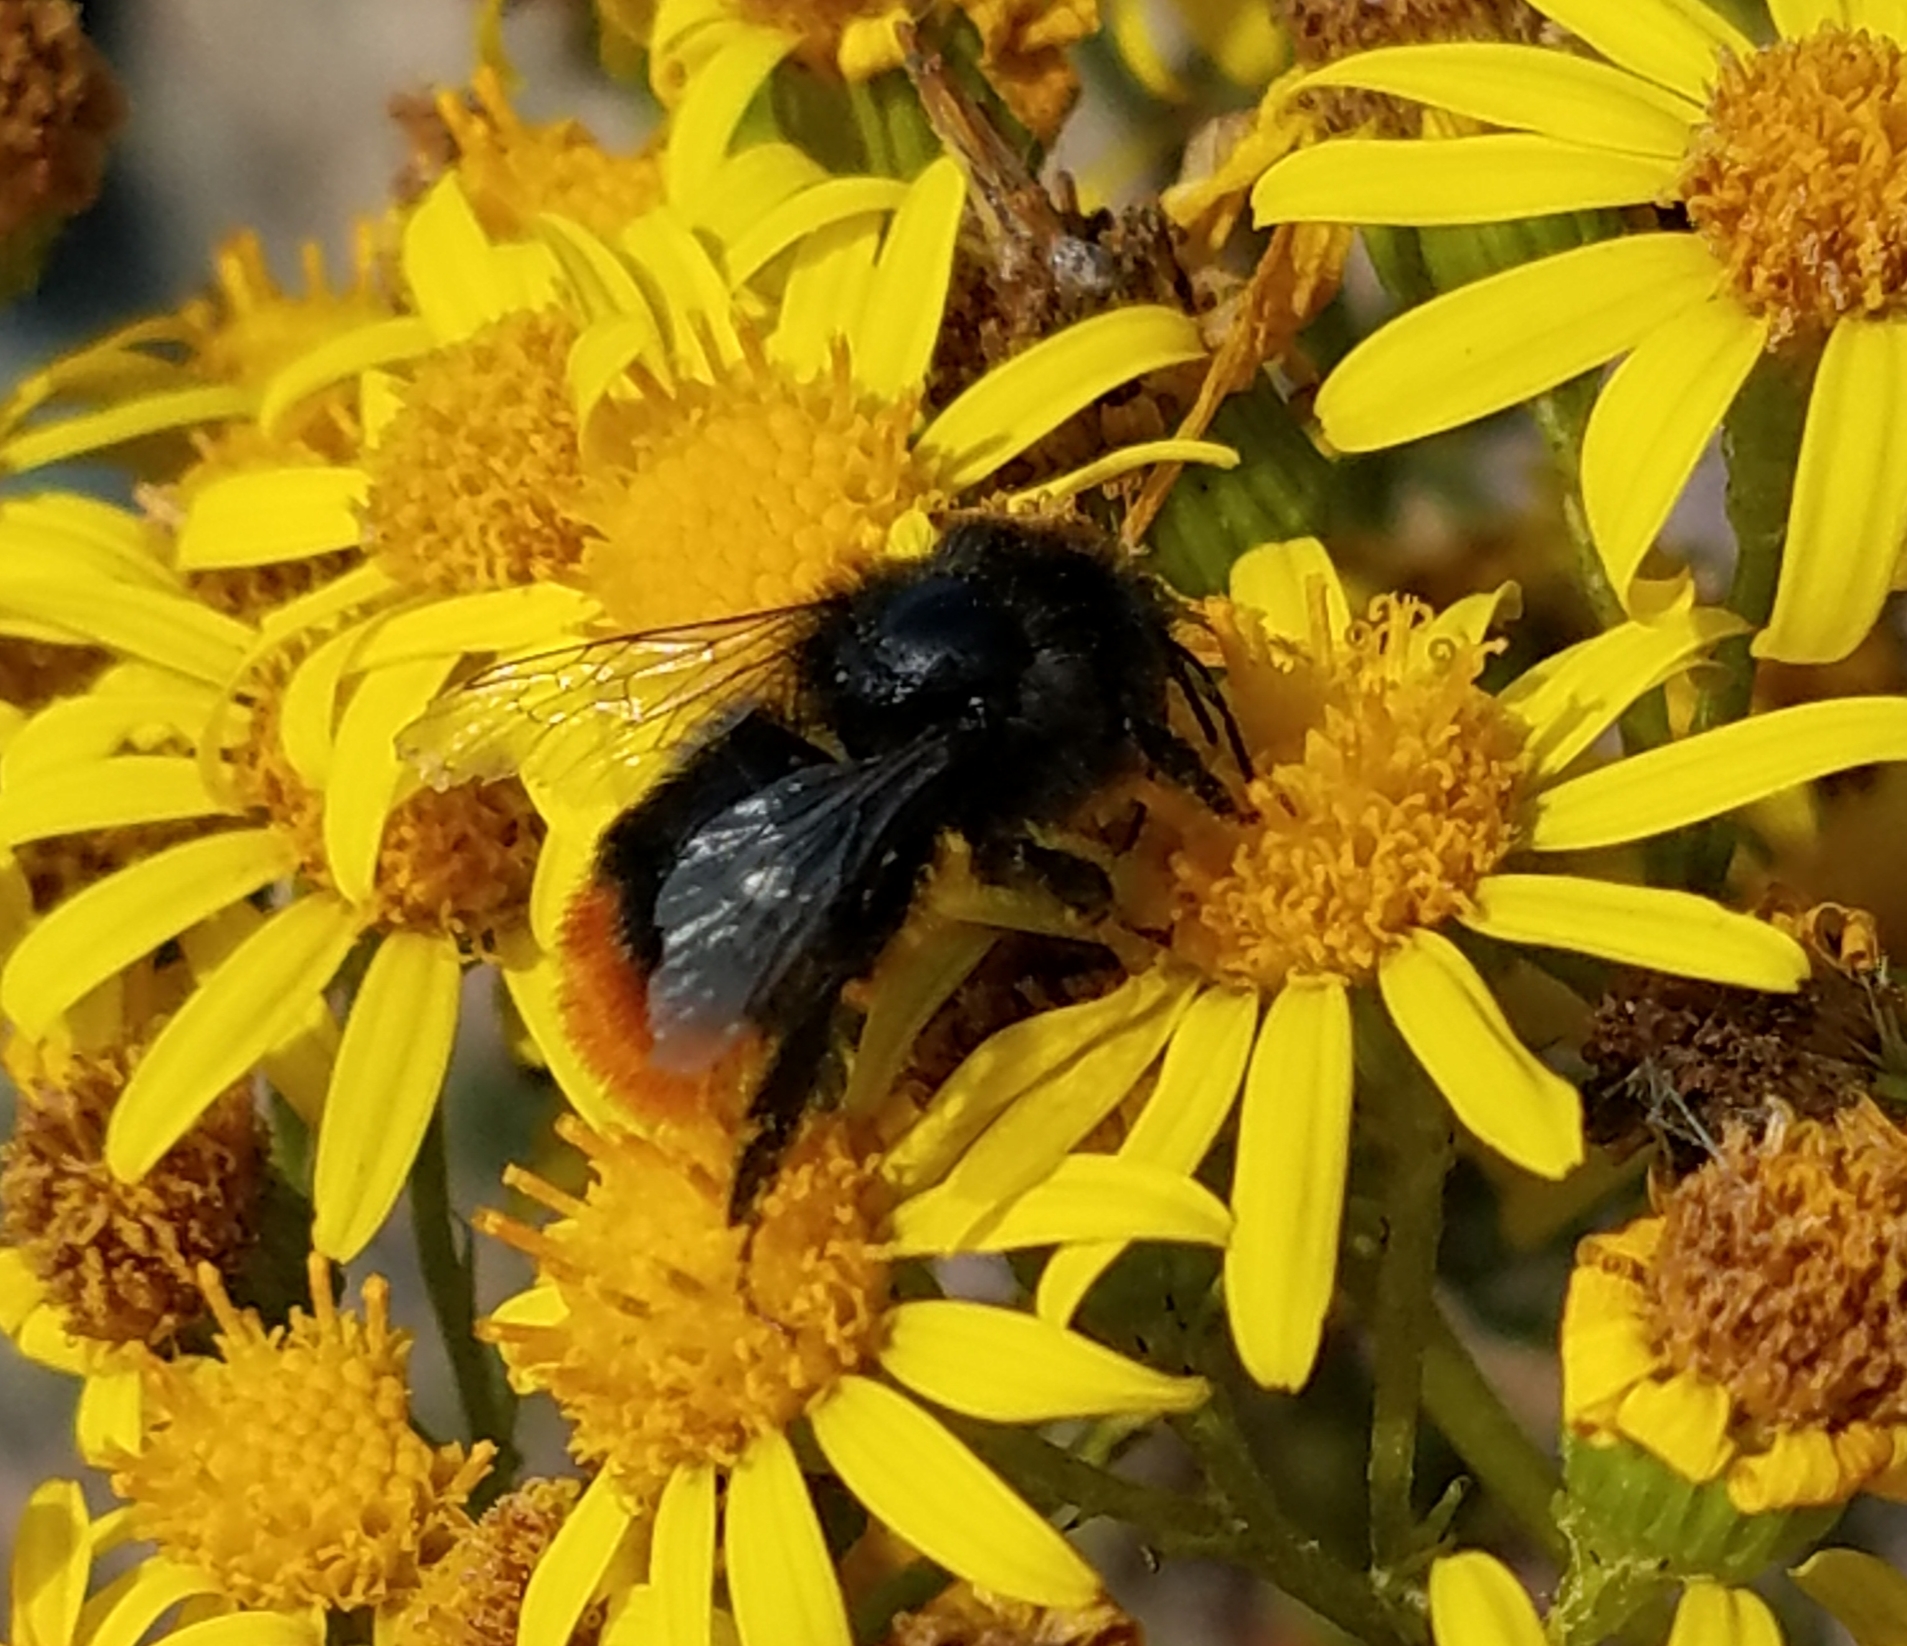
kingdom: Animalia
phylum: Arthropoda
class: Insecta
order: Hymenoptera
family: Apidae
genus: Bombus
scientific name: Bombus lapidarius
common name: Large red-tailed humble-bee
